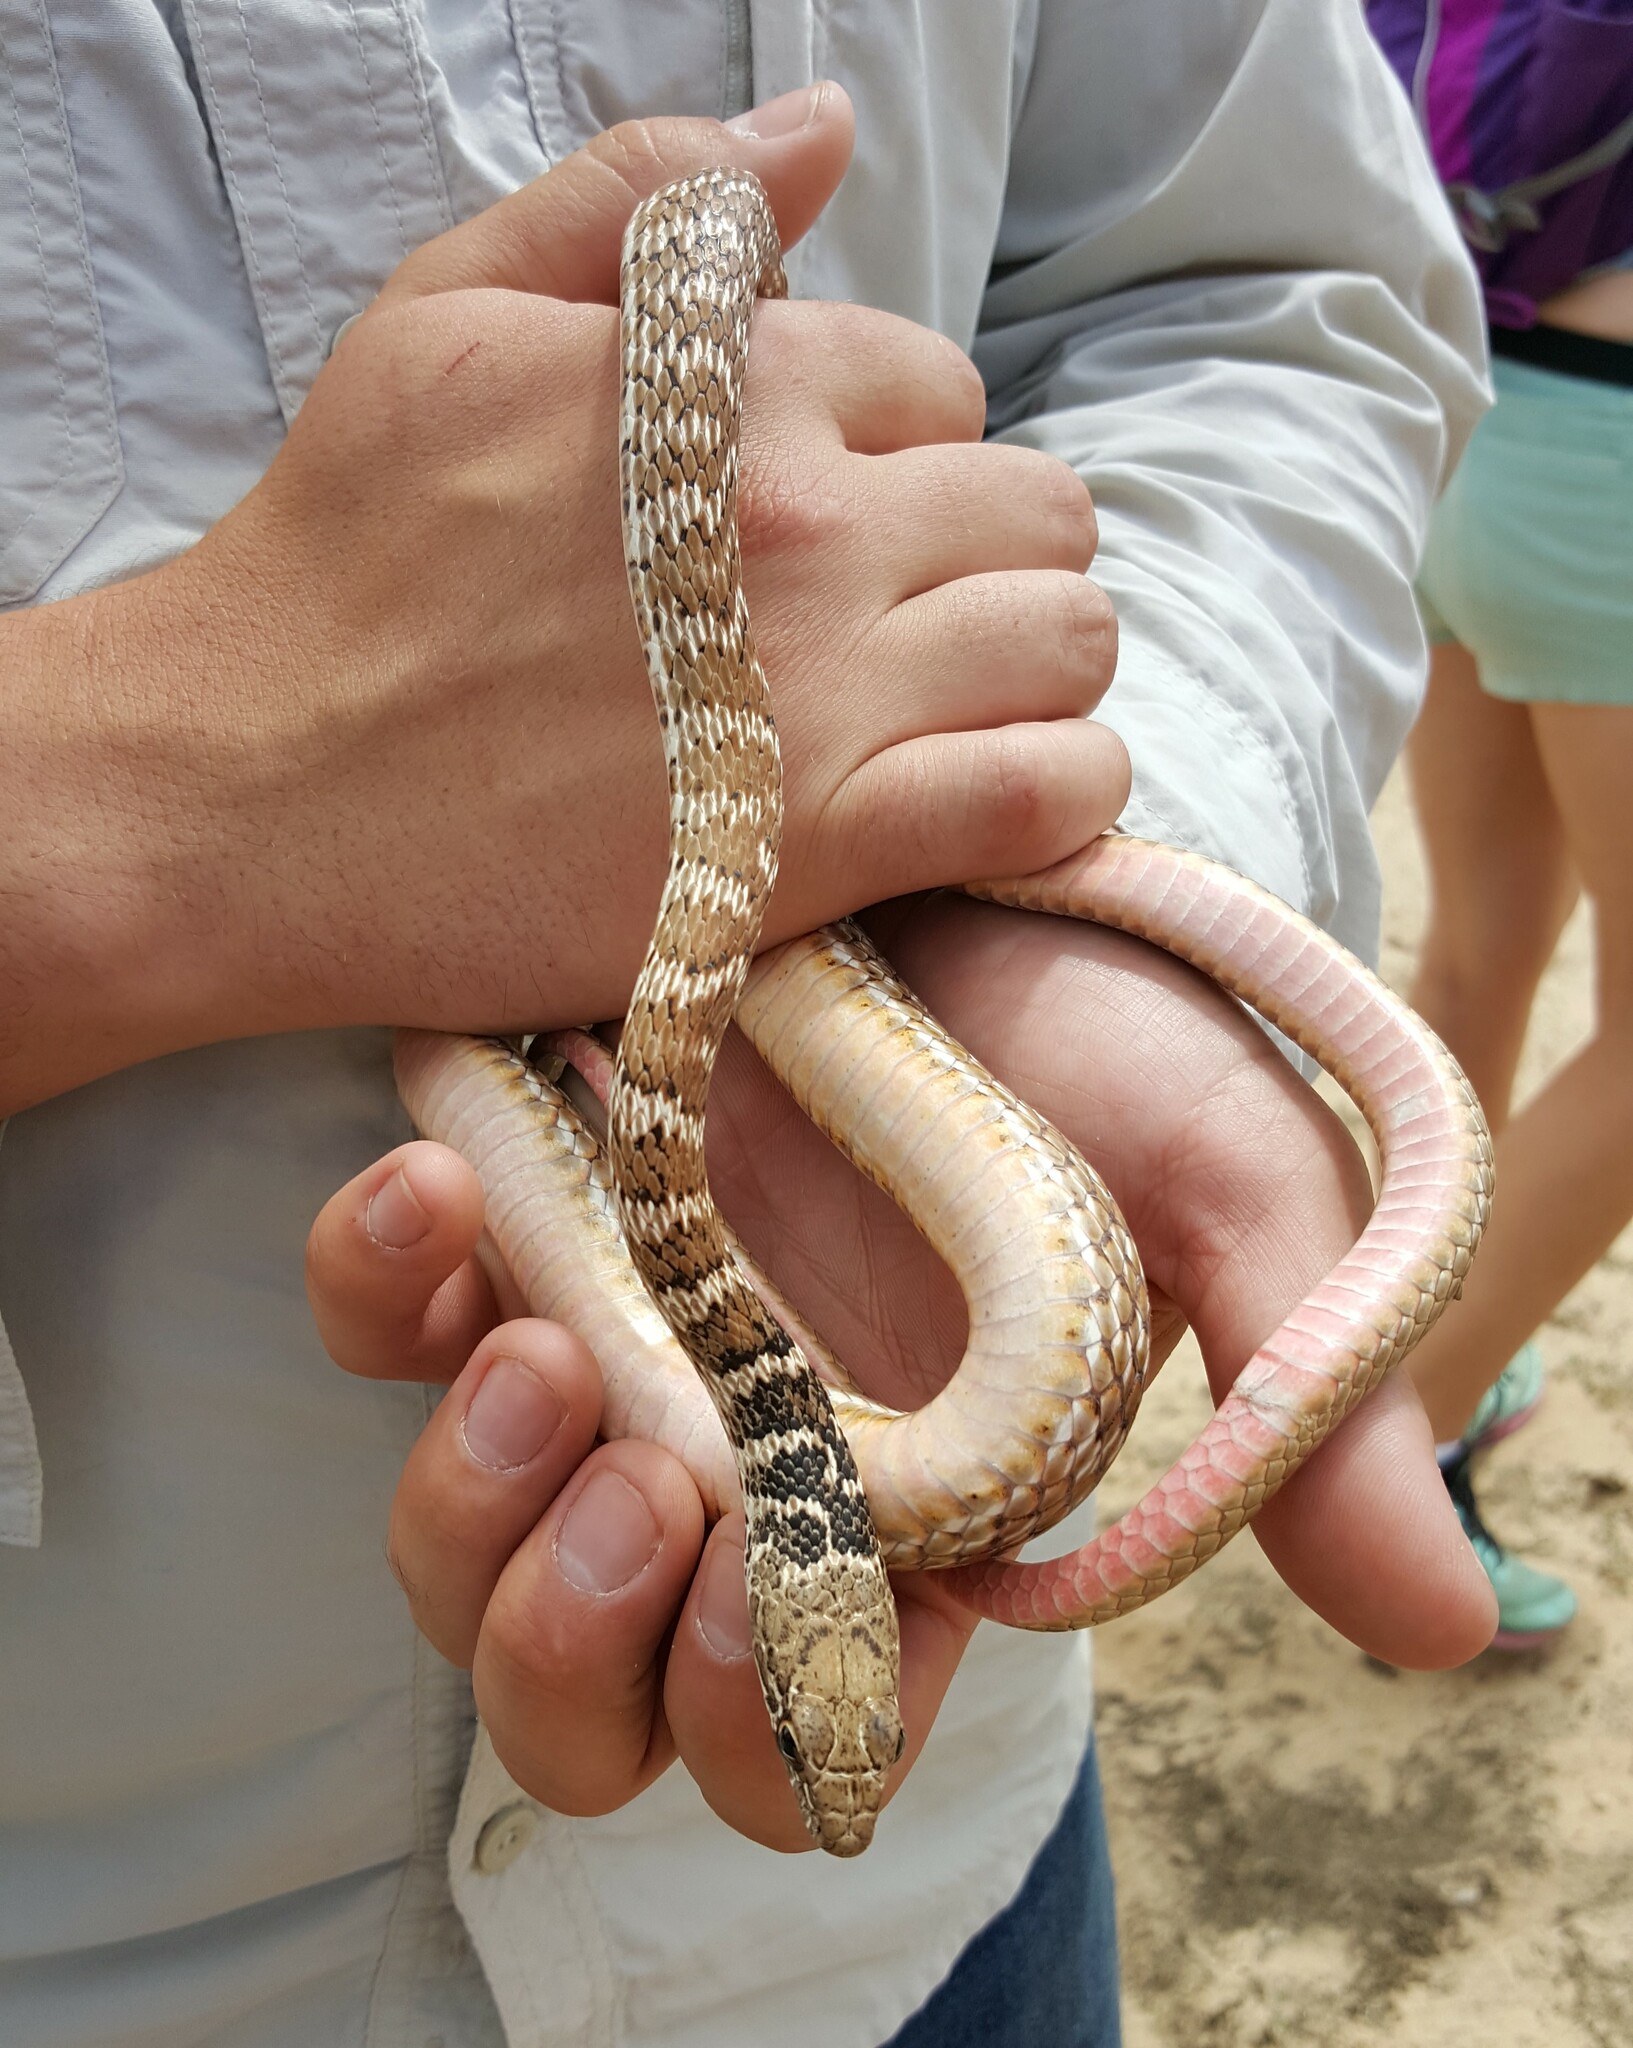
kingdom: Animalia
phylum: Chordata
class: Squamata
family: Colubridae
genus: Masticophis
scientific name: Masticophis flagellum
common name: Coachwhip
